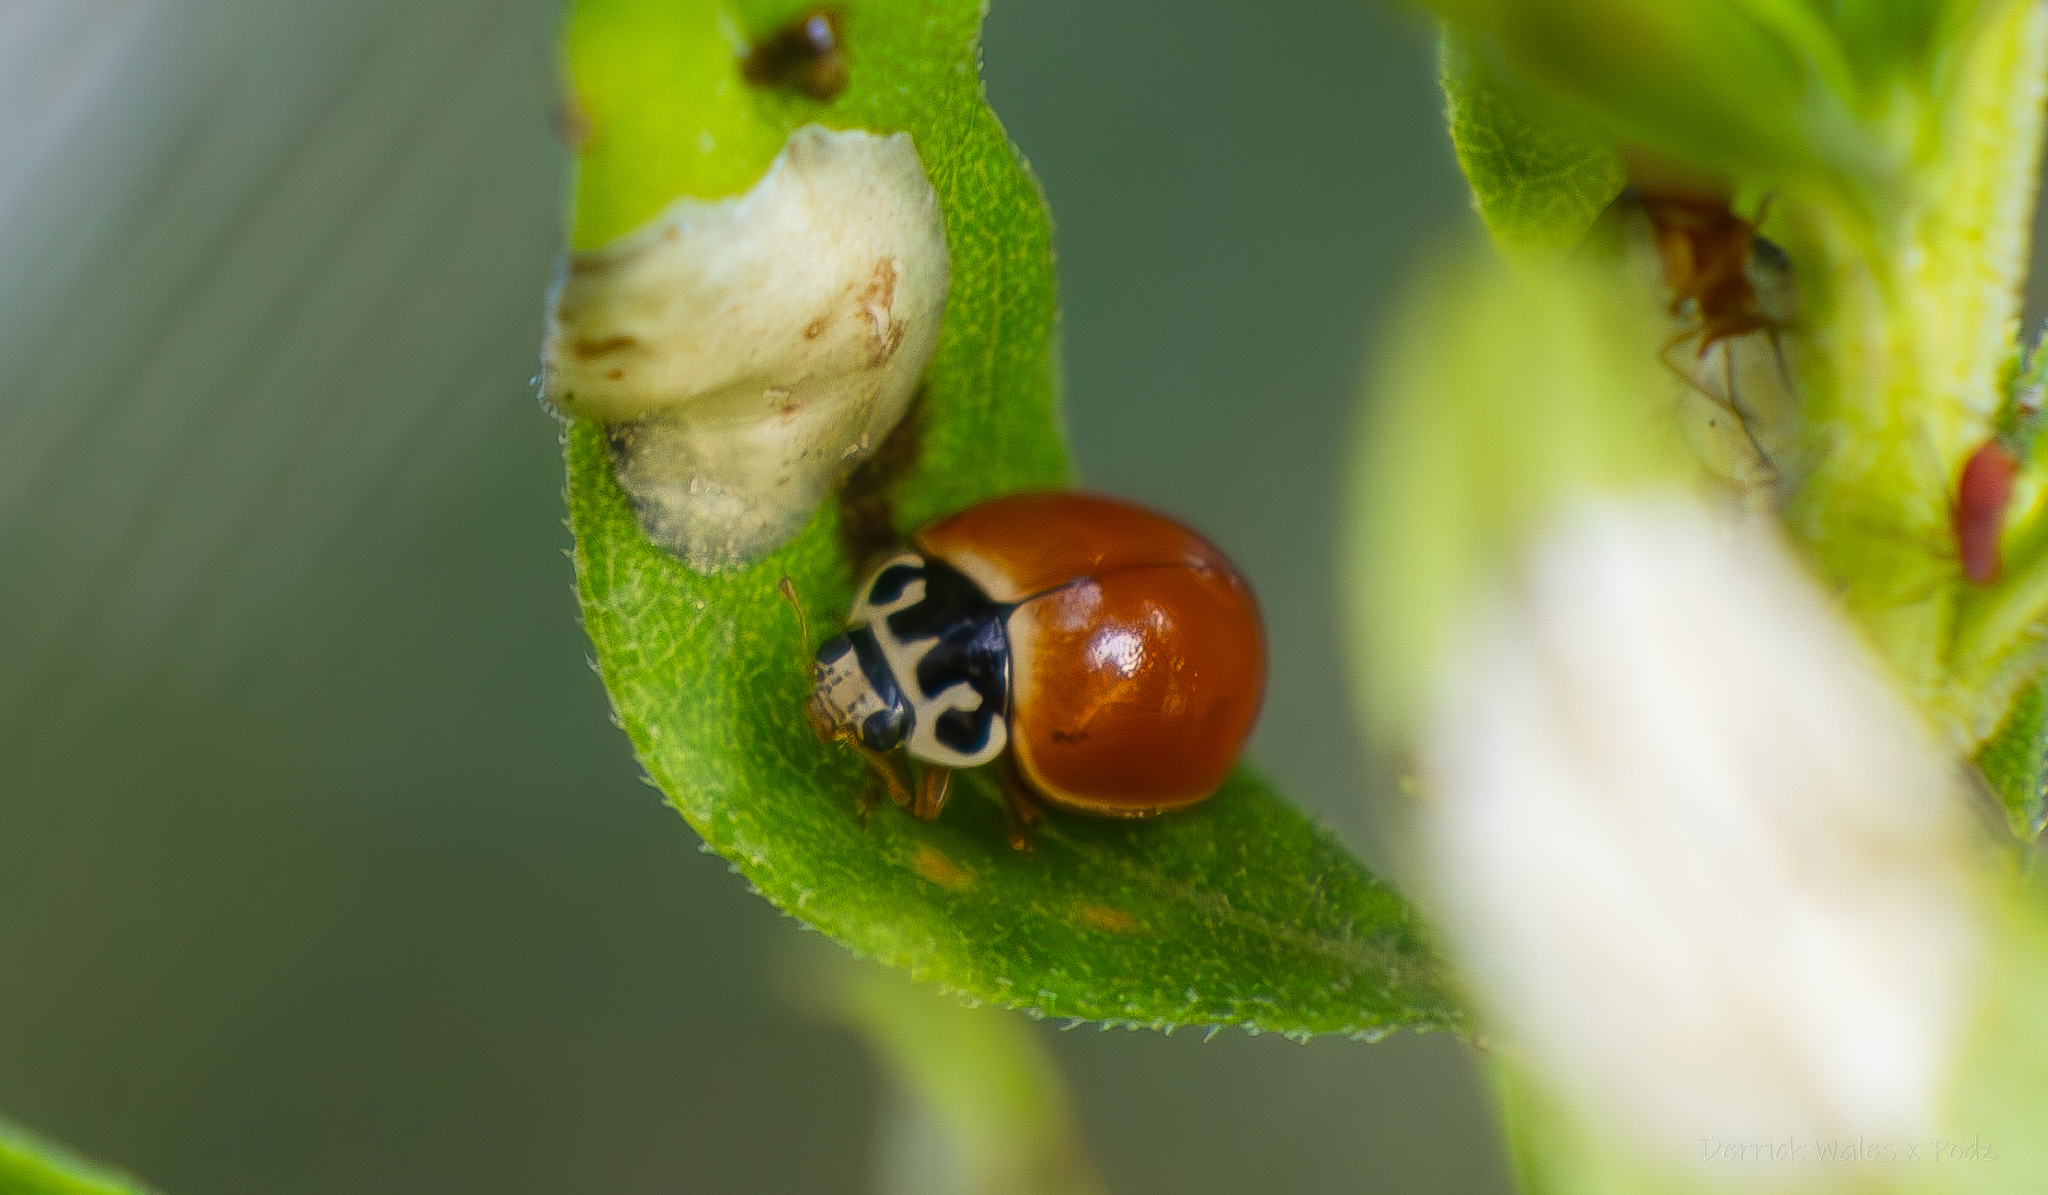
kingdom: Animalia
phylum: Arthropoda
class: Insecta
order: Coleoptera
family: Coccinellidae
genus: Cycloneda
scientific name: Cycloneda munda
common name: Polished lady beetle
